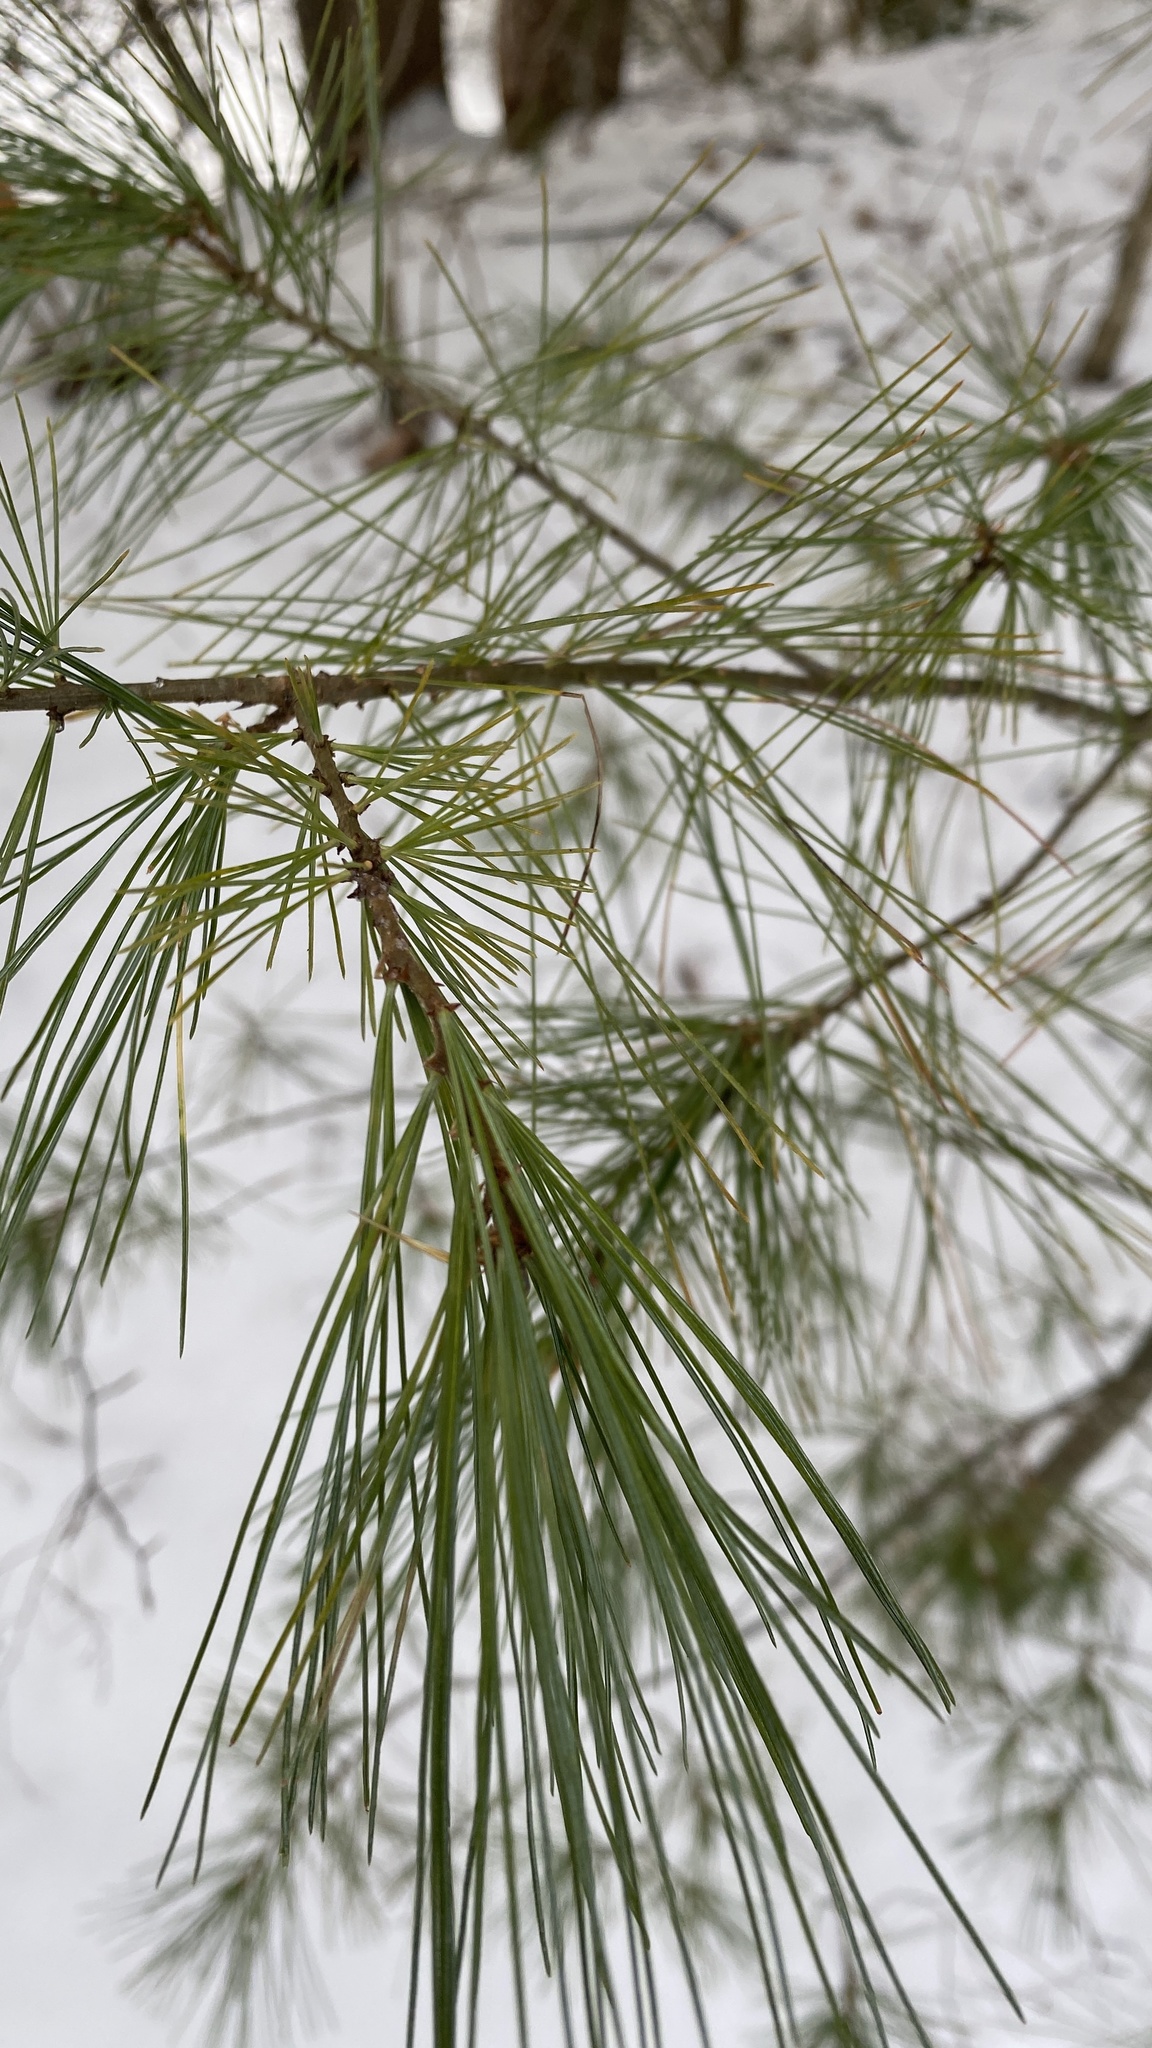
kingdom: Plantae
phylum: Tracheophyta
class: Pinopsida
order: Pinales
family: Pinaceae
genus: Pinus
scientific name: Pinus strobus
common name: Weymouth pine
